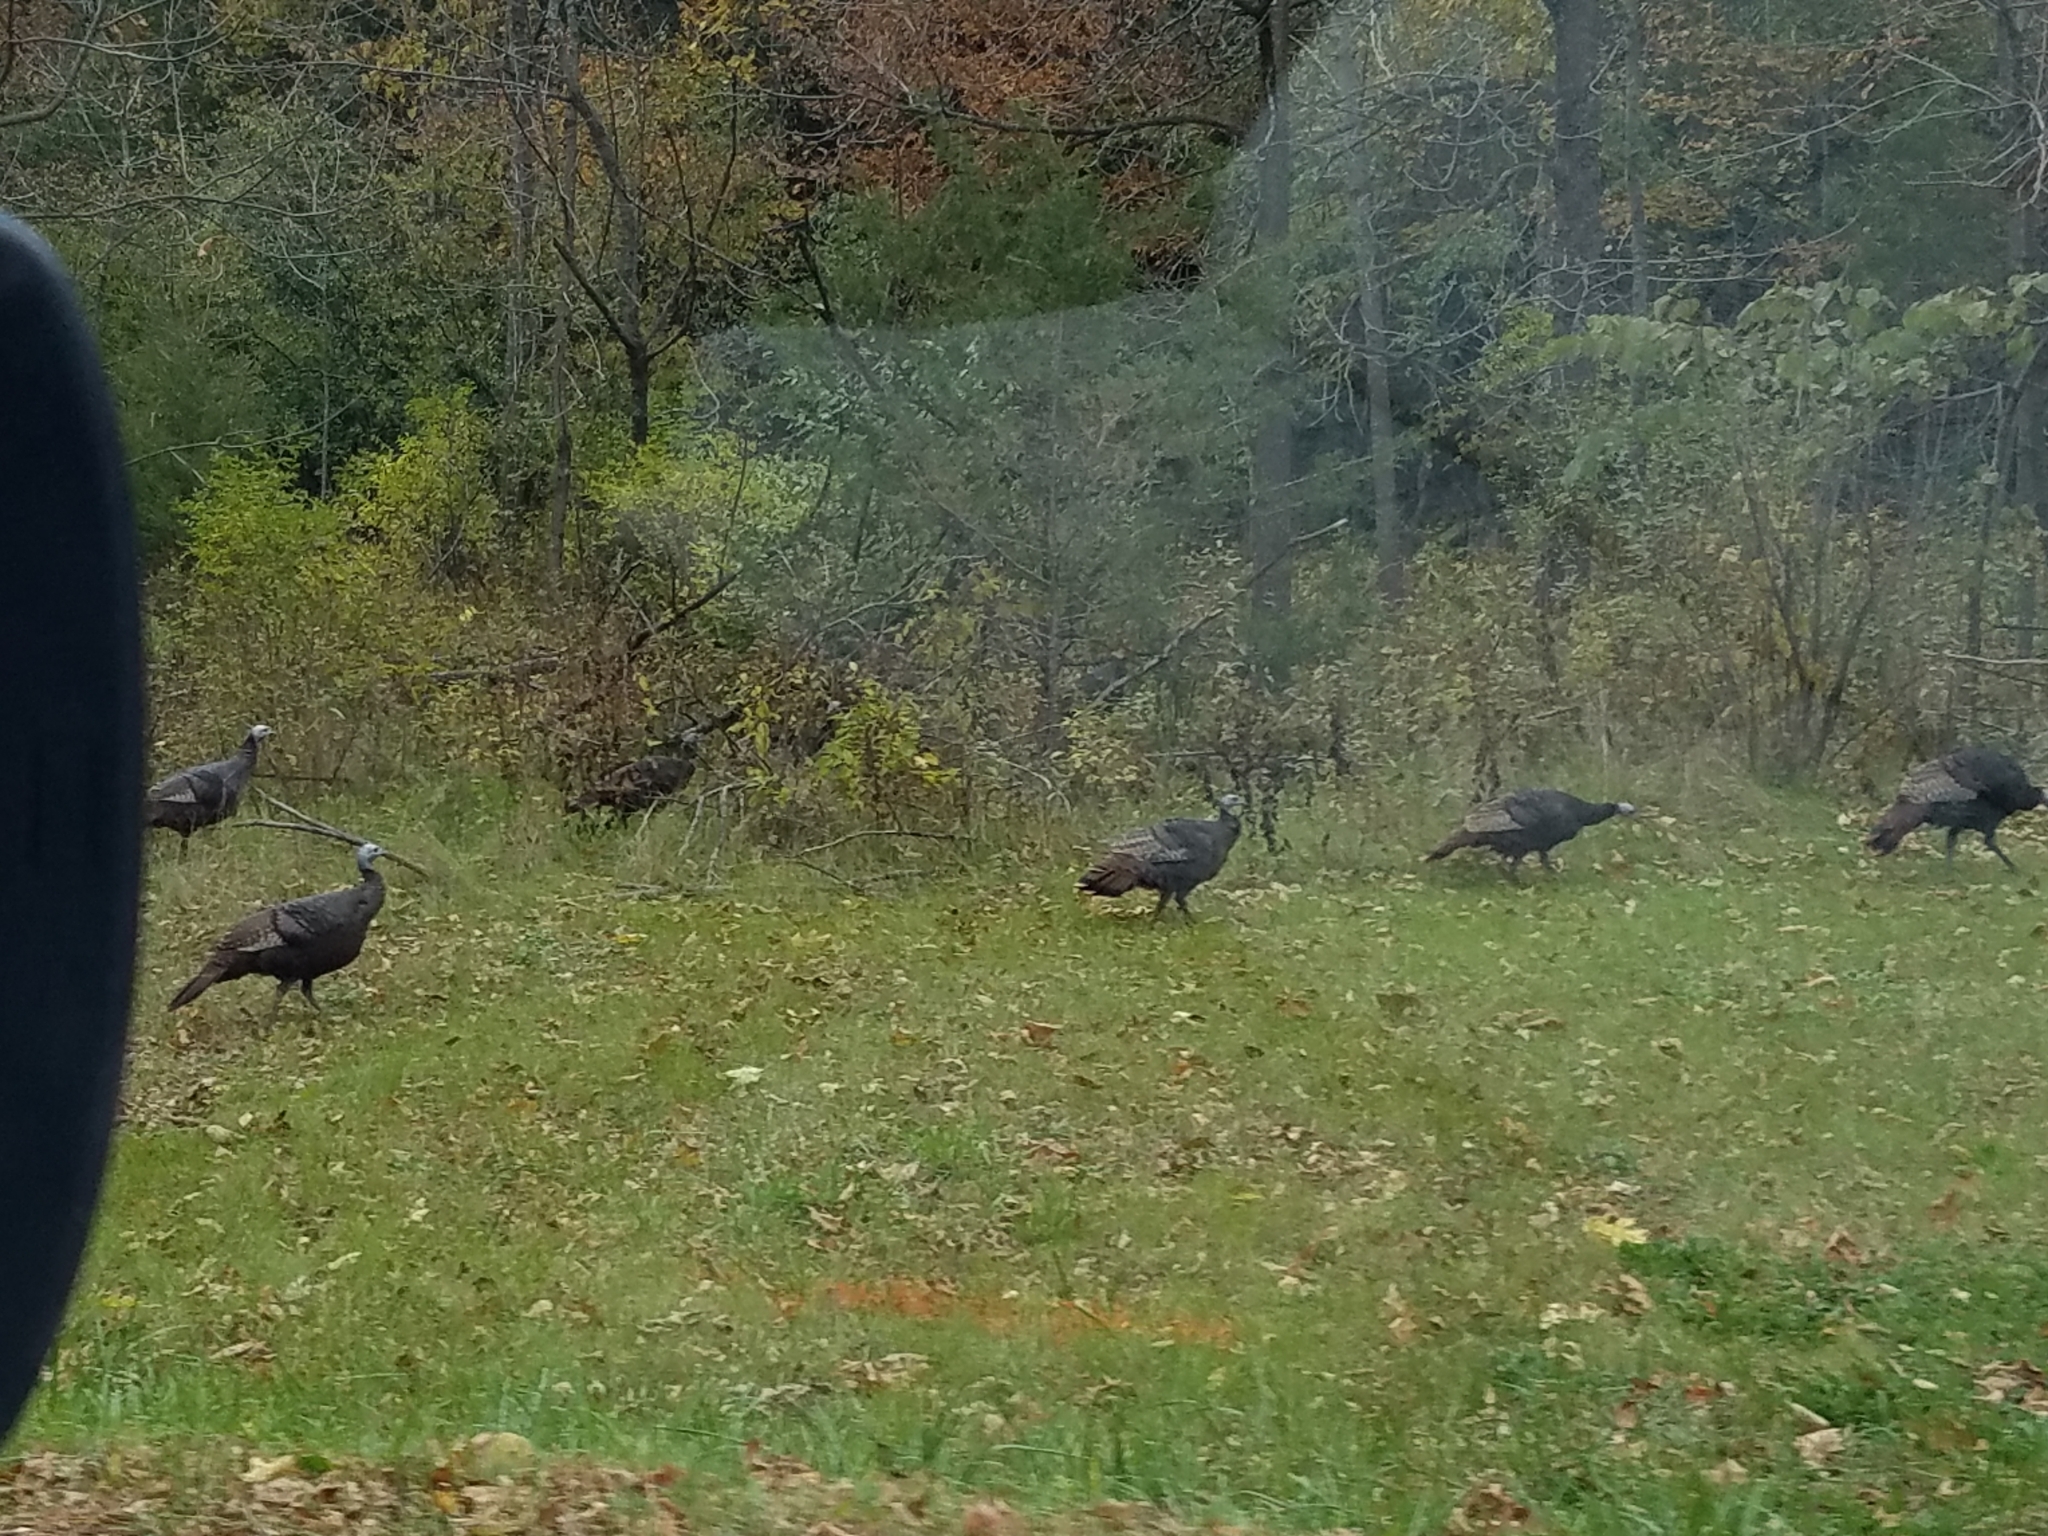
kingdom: Animalia
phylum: Chordata
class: Aves
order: Galliformes
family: Phasianidae
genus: Meleagris
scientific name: Meleagris gallopavo
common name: Wild turkey
